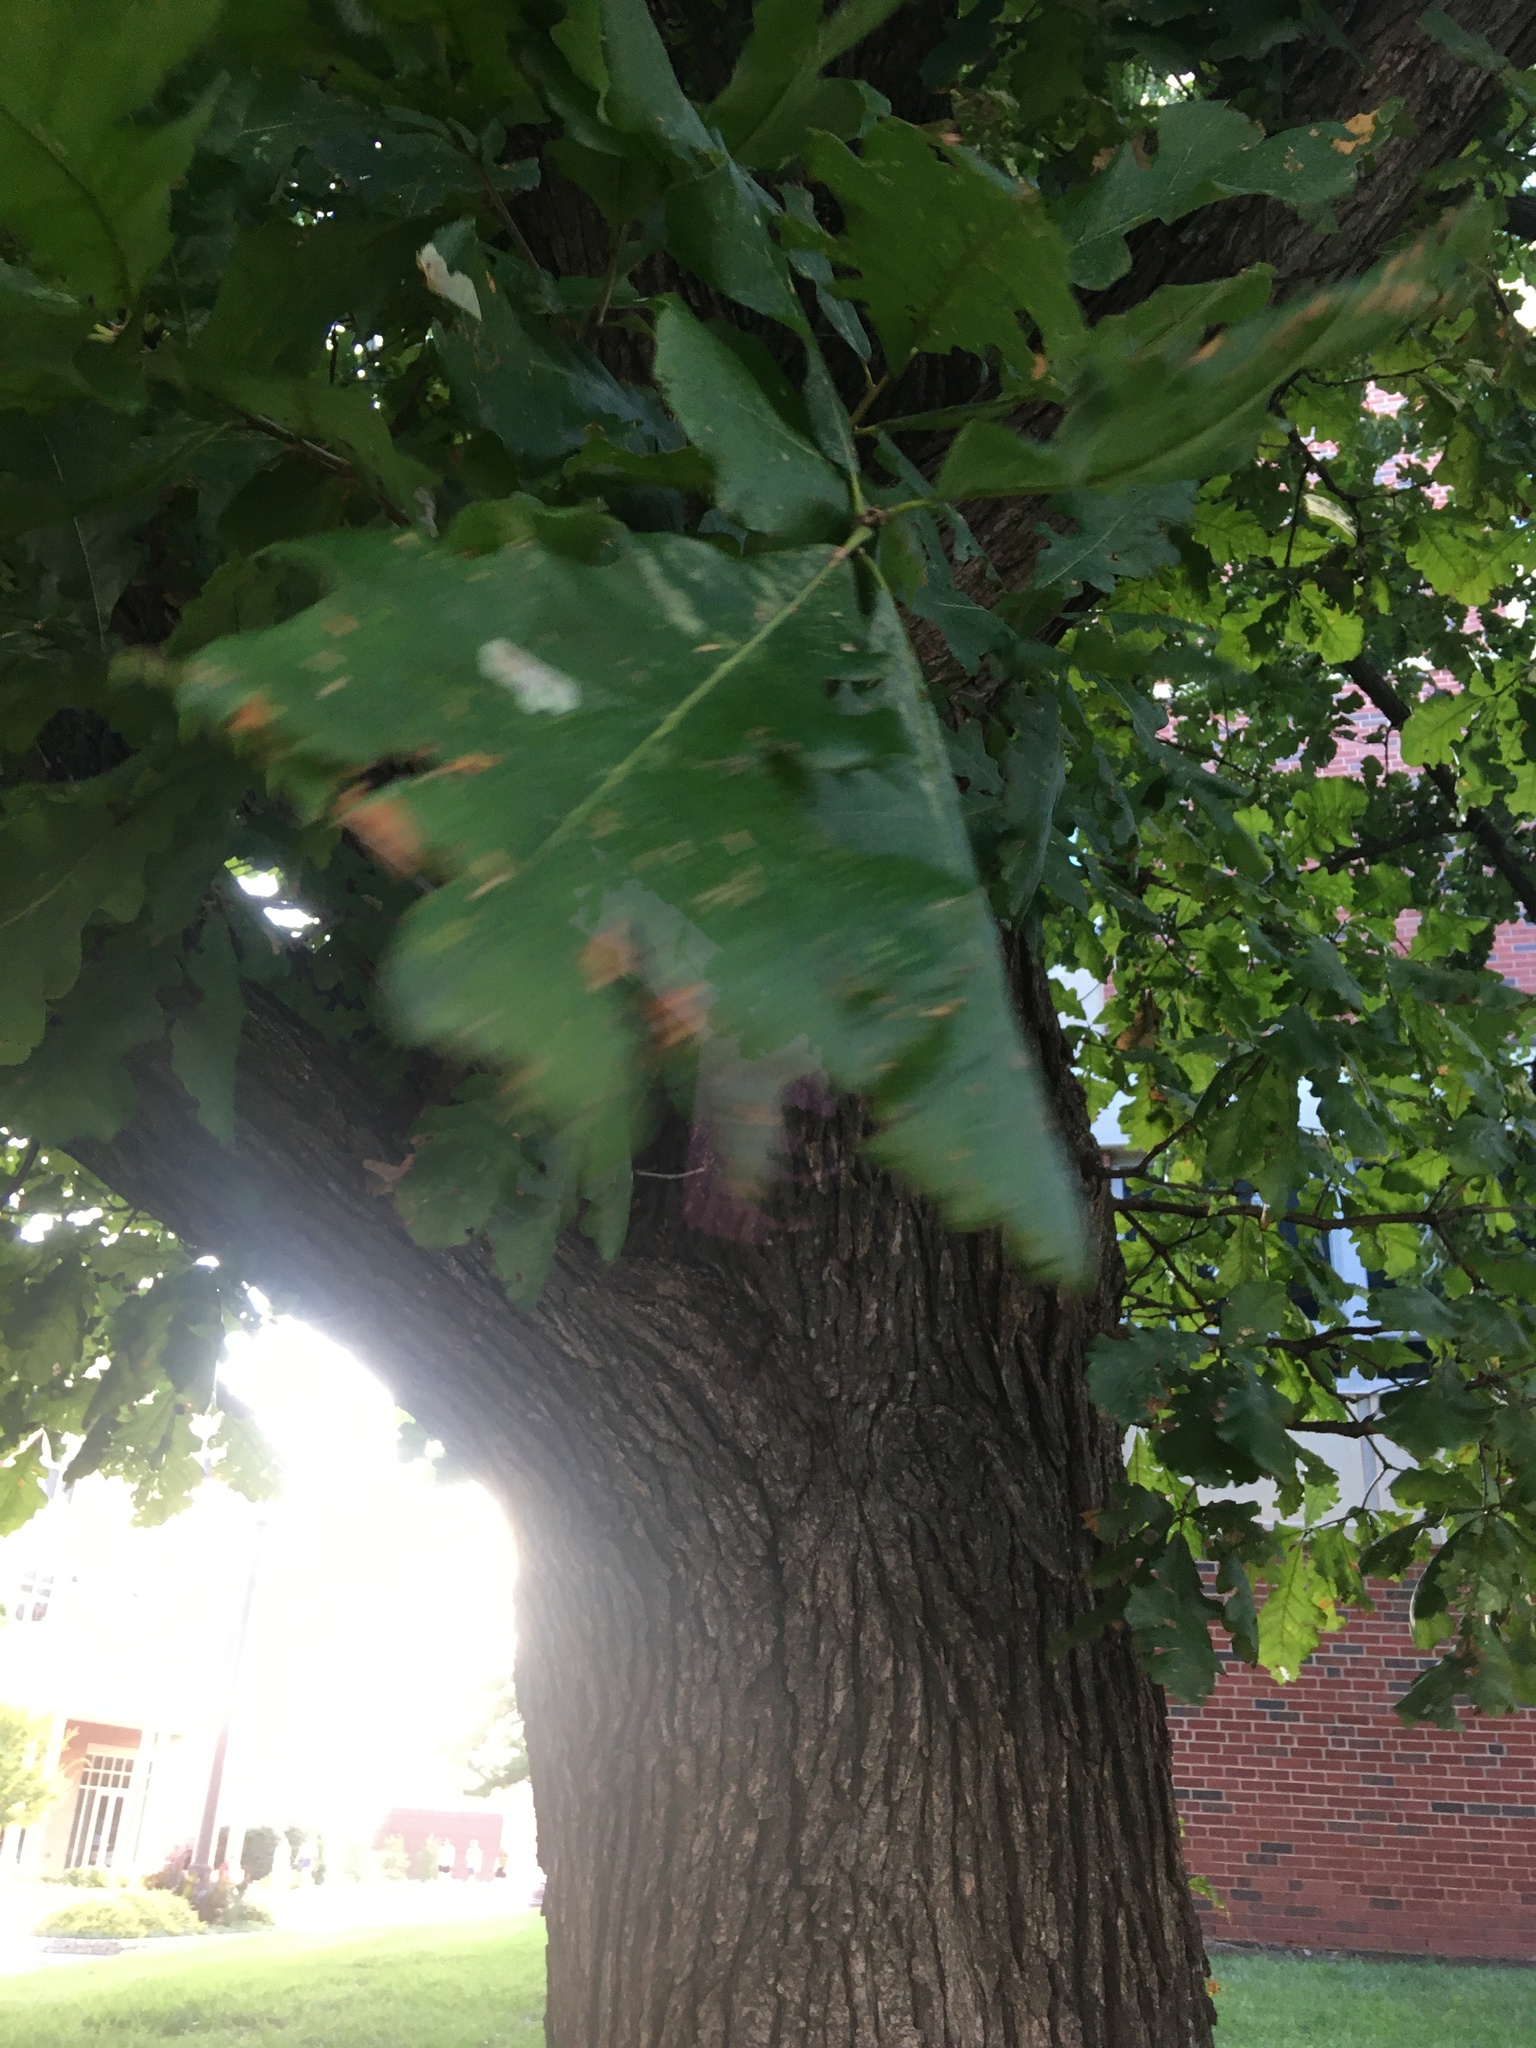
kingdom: Plantae
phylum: Tracheophyta
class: Magnoliopsida
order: Fagales
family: Fagaceae
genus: Quercus
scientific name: Quercus macrocarpa
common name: Bur oak
